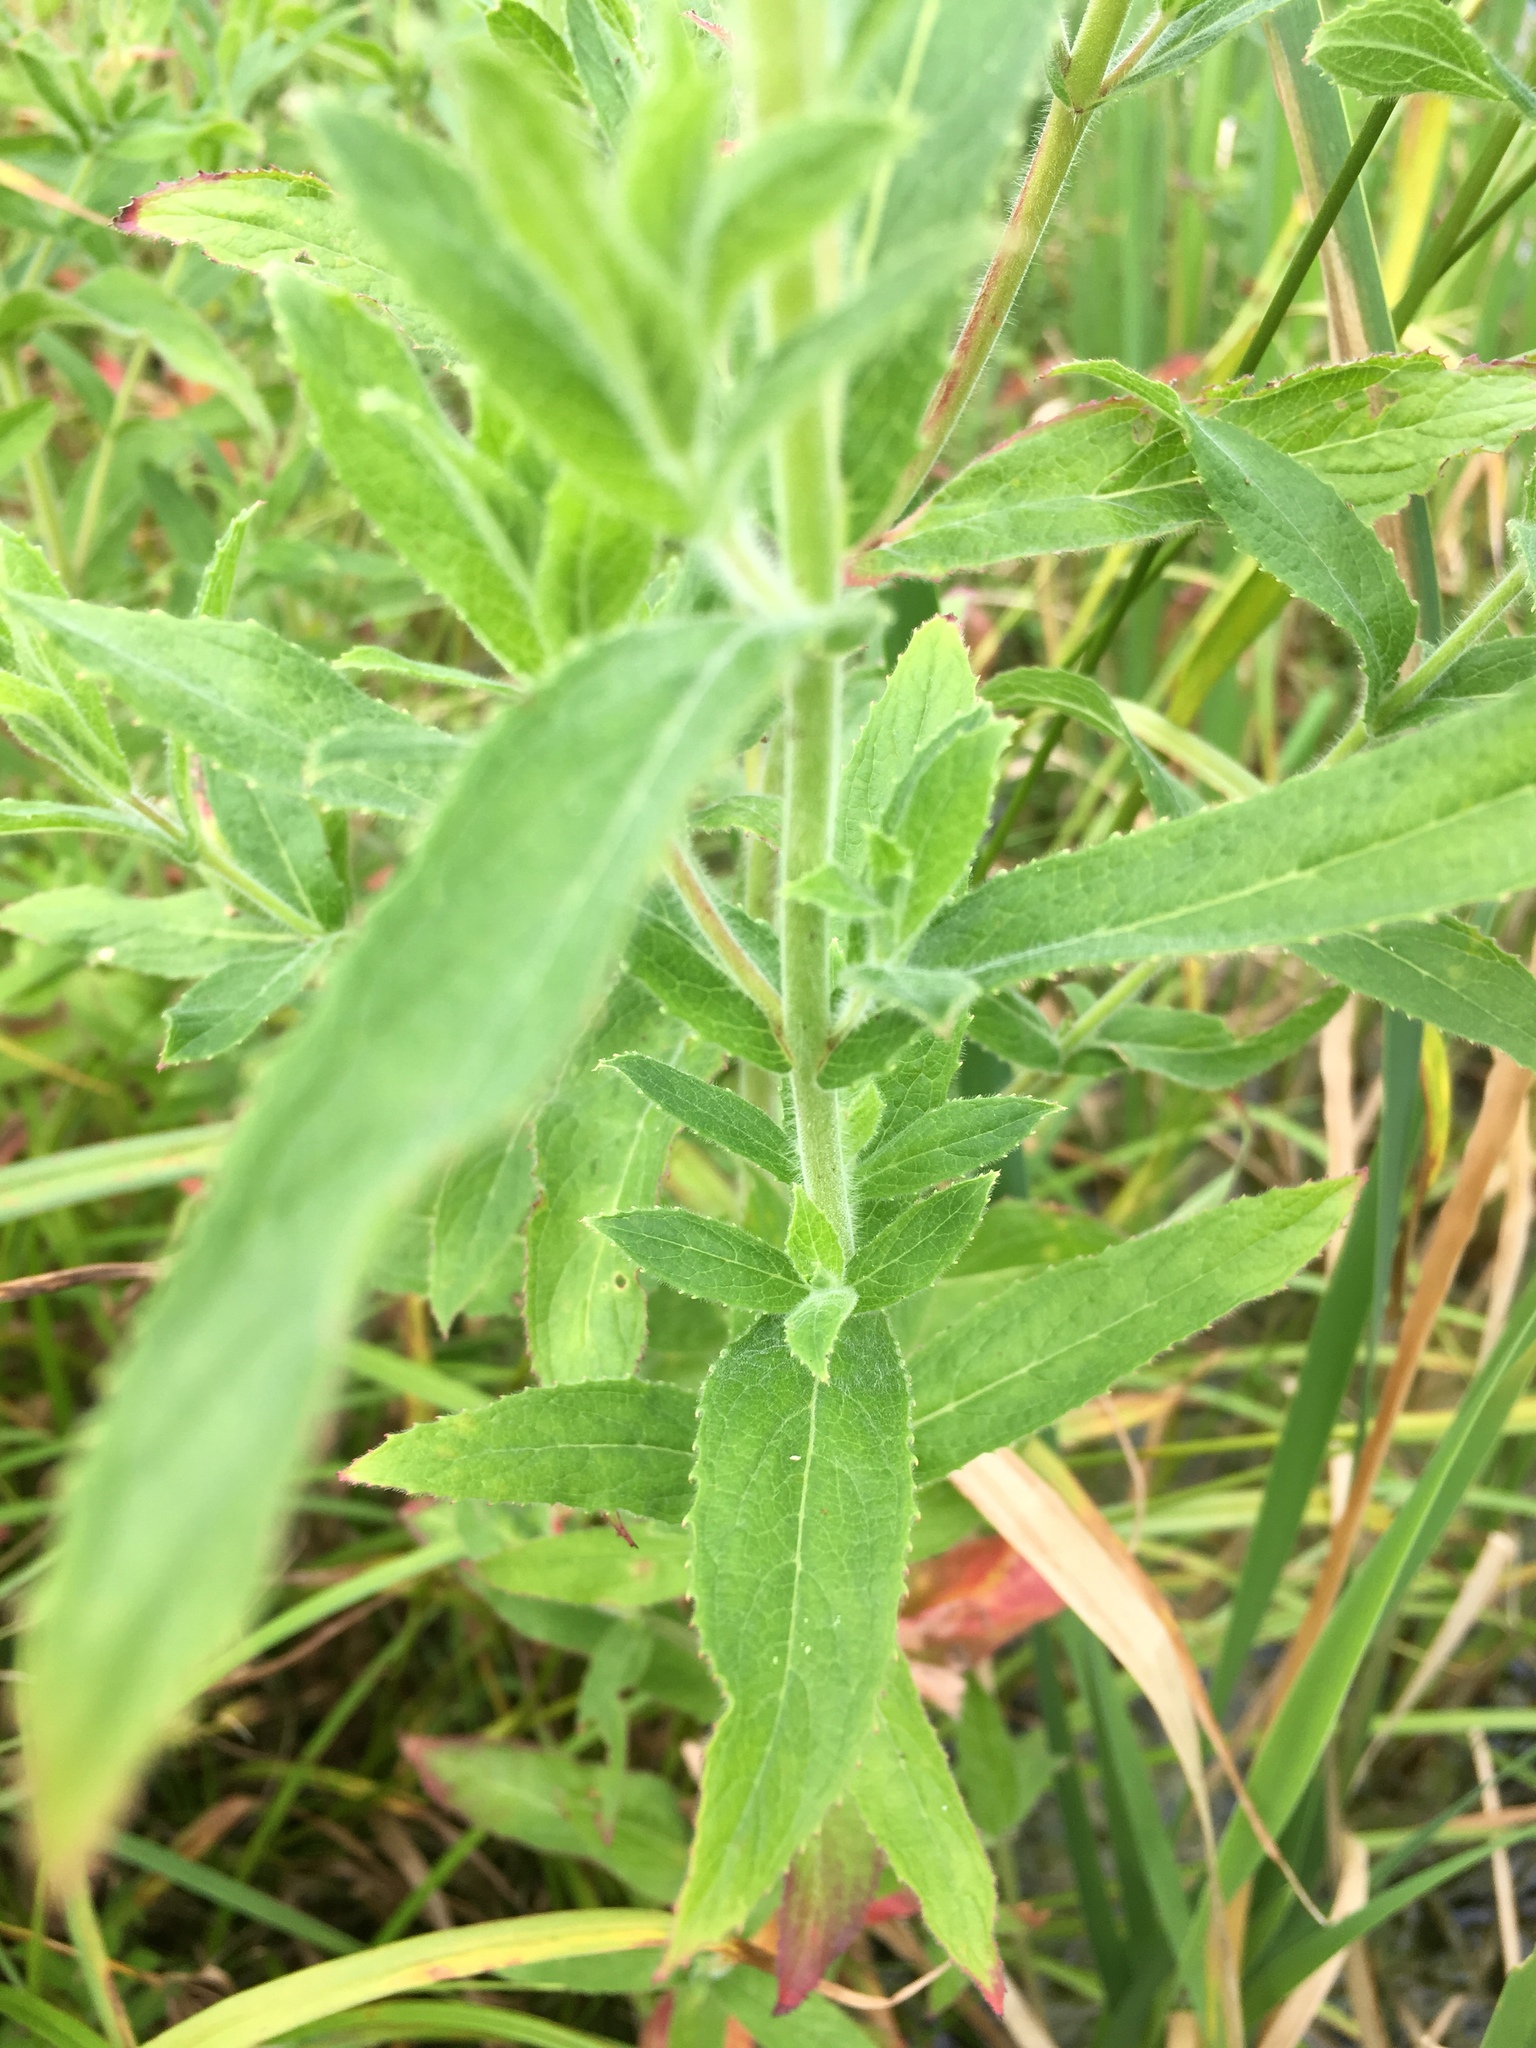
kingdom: Plantae
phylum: Tracheophyta
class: Magnoliopsida
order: Myrtales
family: Onagraceae
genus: Epilobium
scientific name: Epilobium hirsutum
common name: Great willowherb
